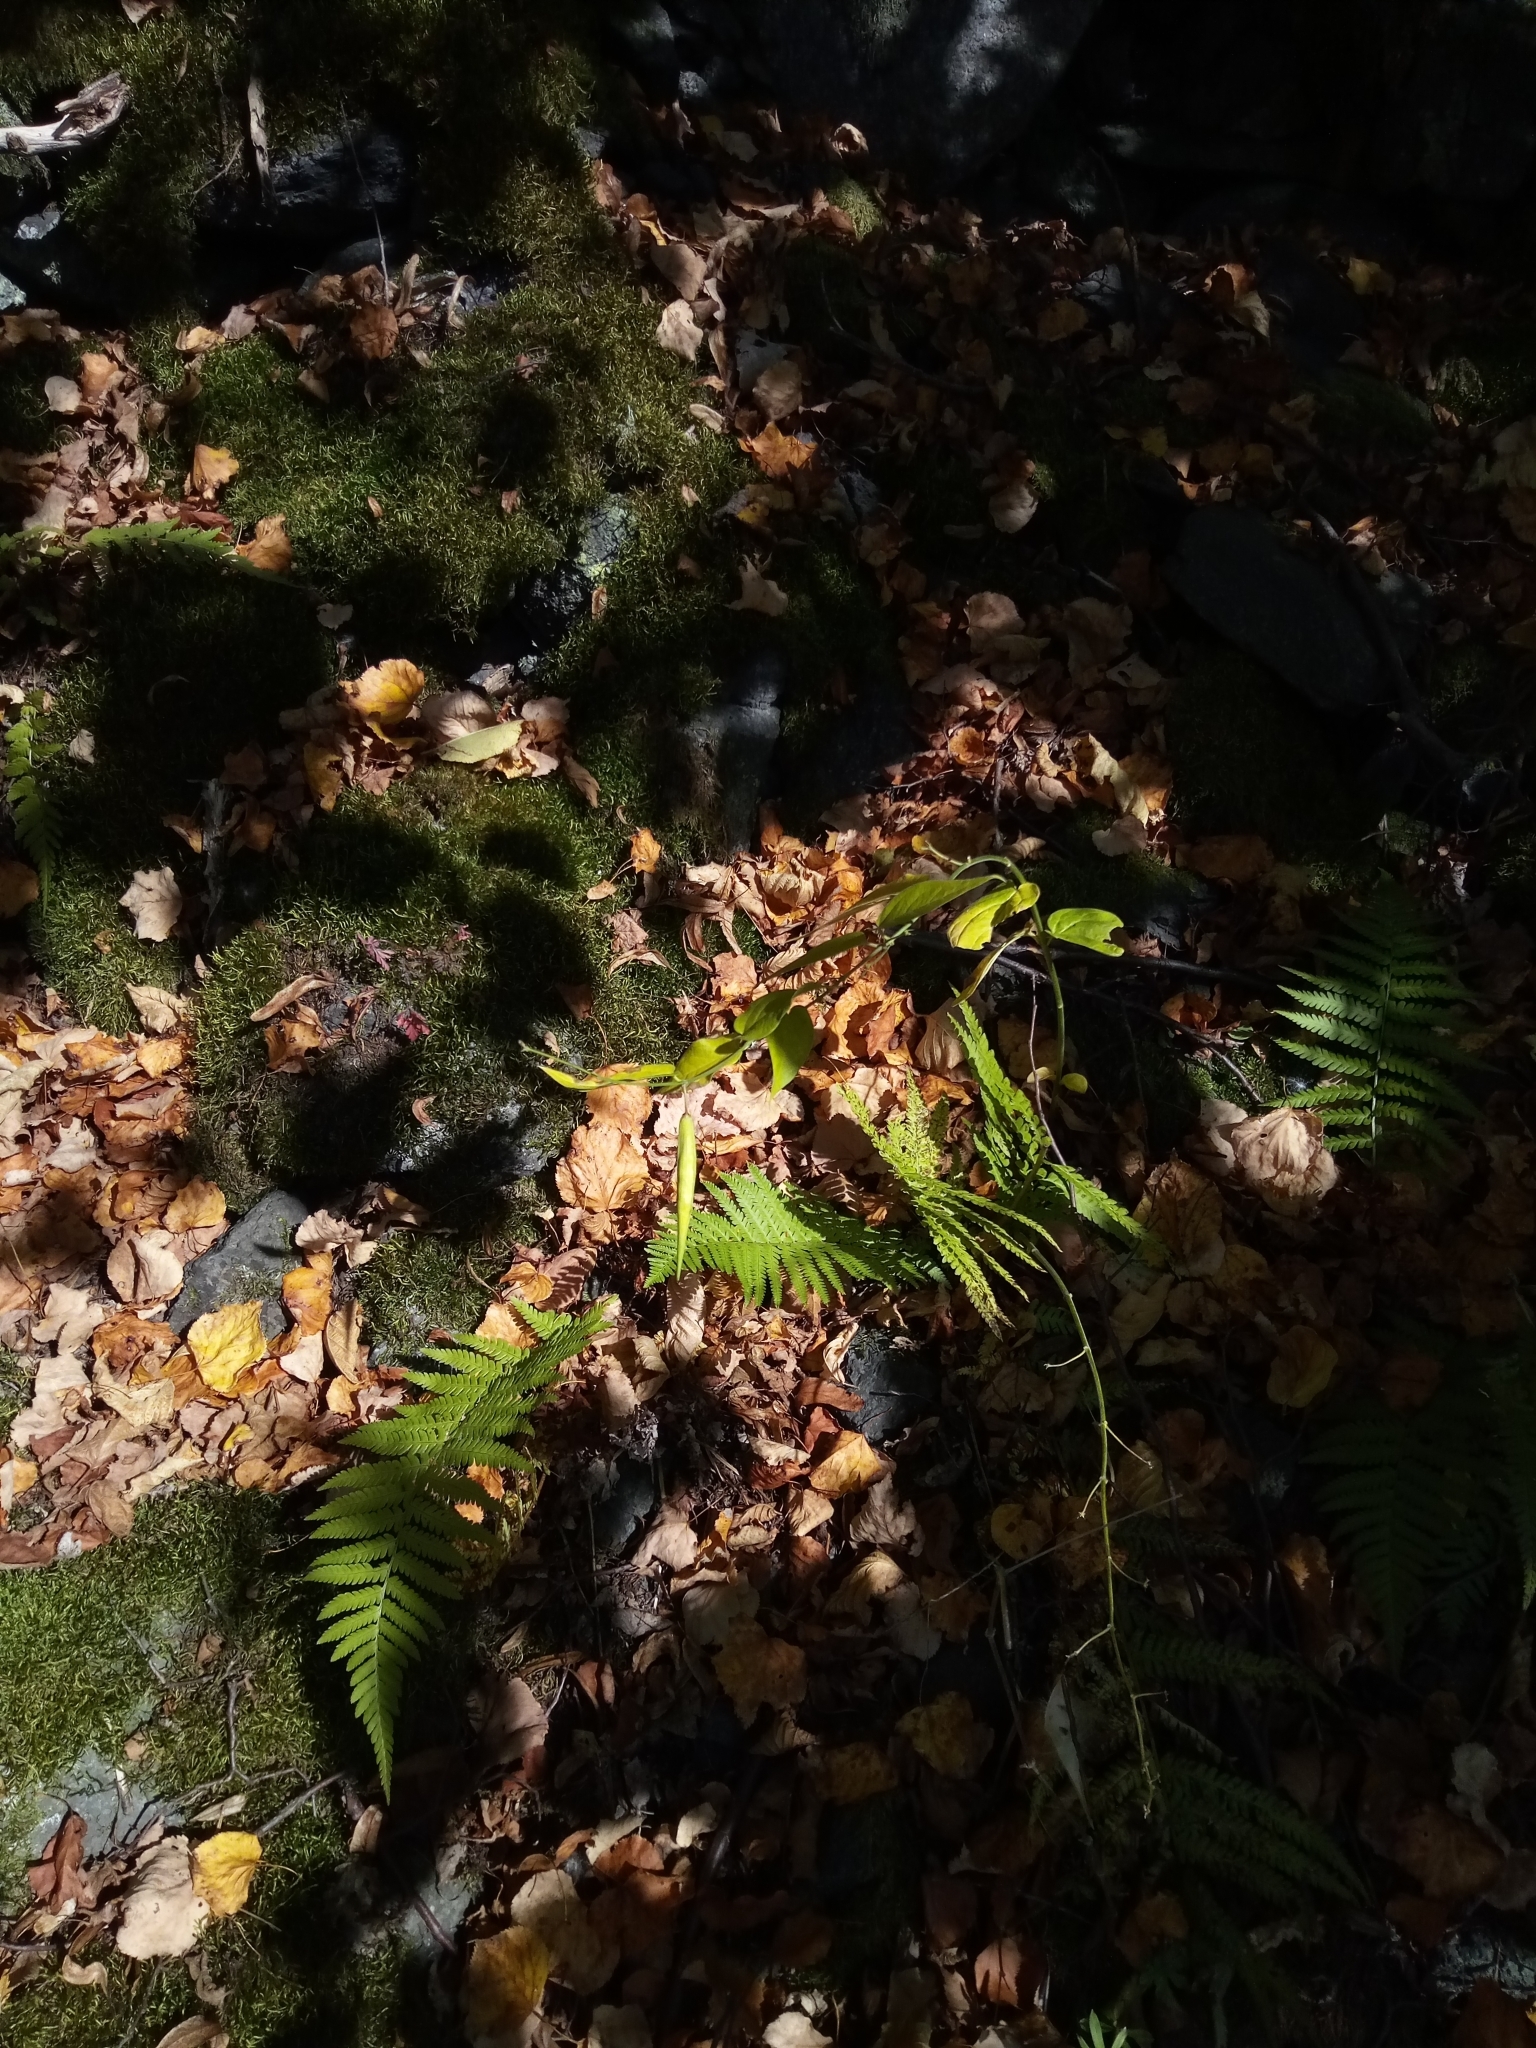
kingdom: Plantae
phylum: Tracheophyta
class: Magnoliopsida
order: Gentianales
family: Apocynaceae
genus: Vincetoxicum
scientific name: Vincetoxicum hirundinaria
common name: White swallowwort
